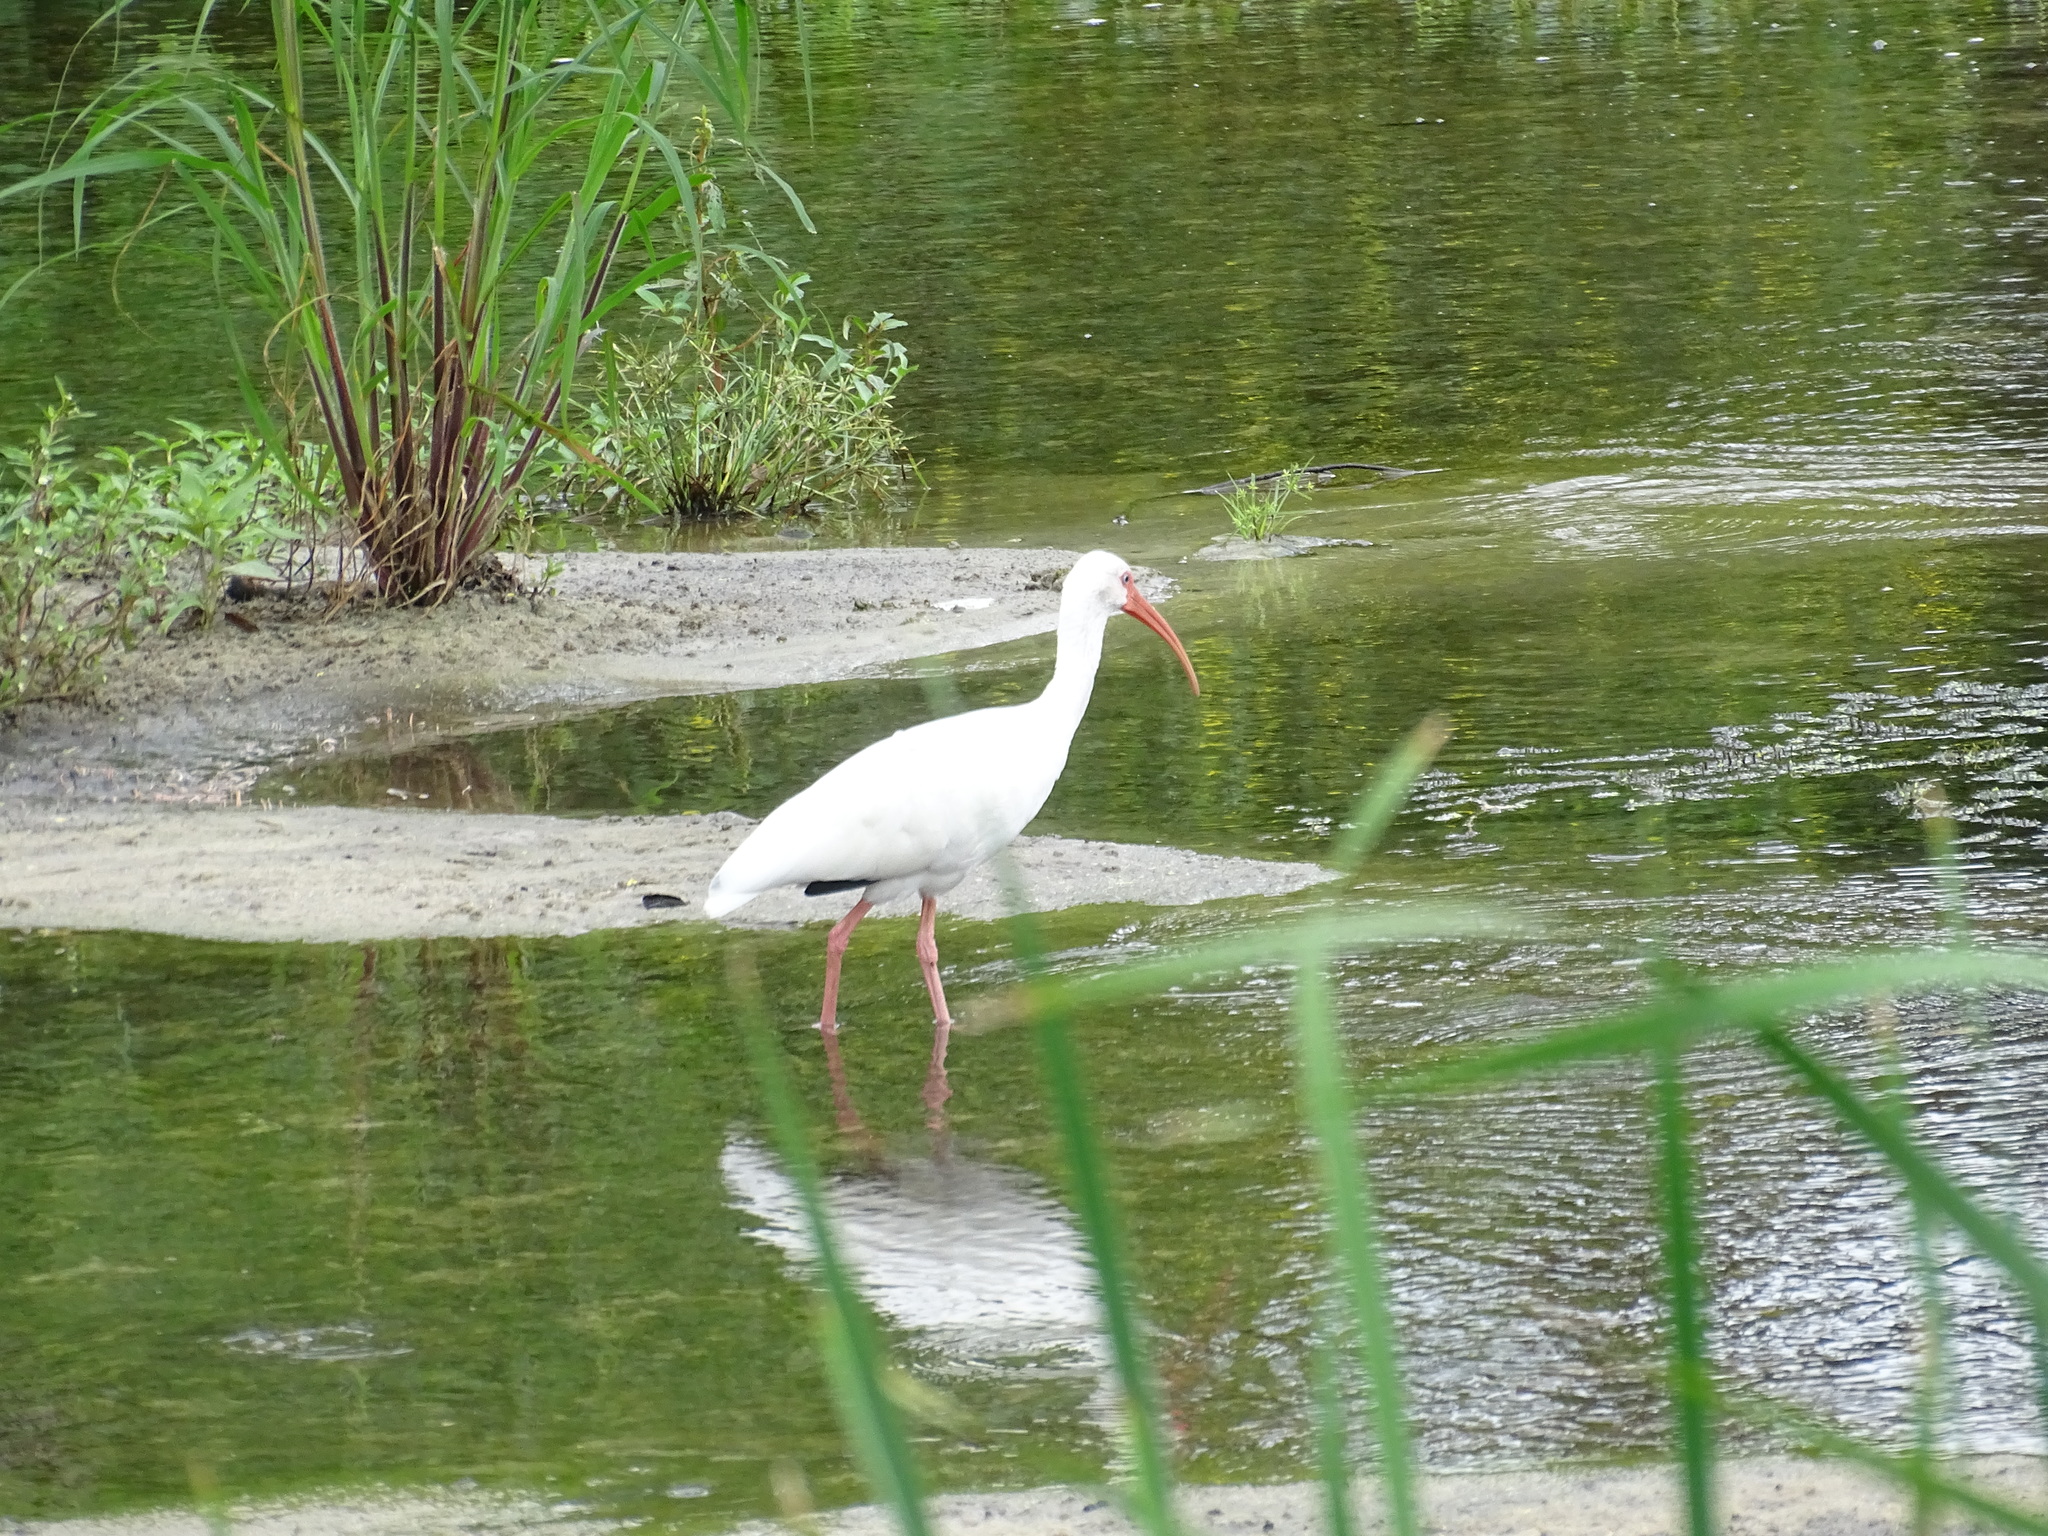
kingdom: Animalia
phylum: Chordata
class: Aves
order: Pelecaniformes
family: Threskiornithidae
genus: Eudocimus
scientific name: Eudocimus albus
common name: White ibis
